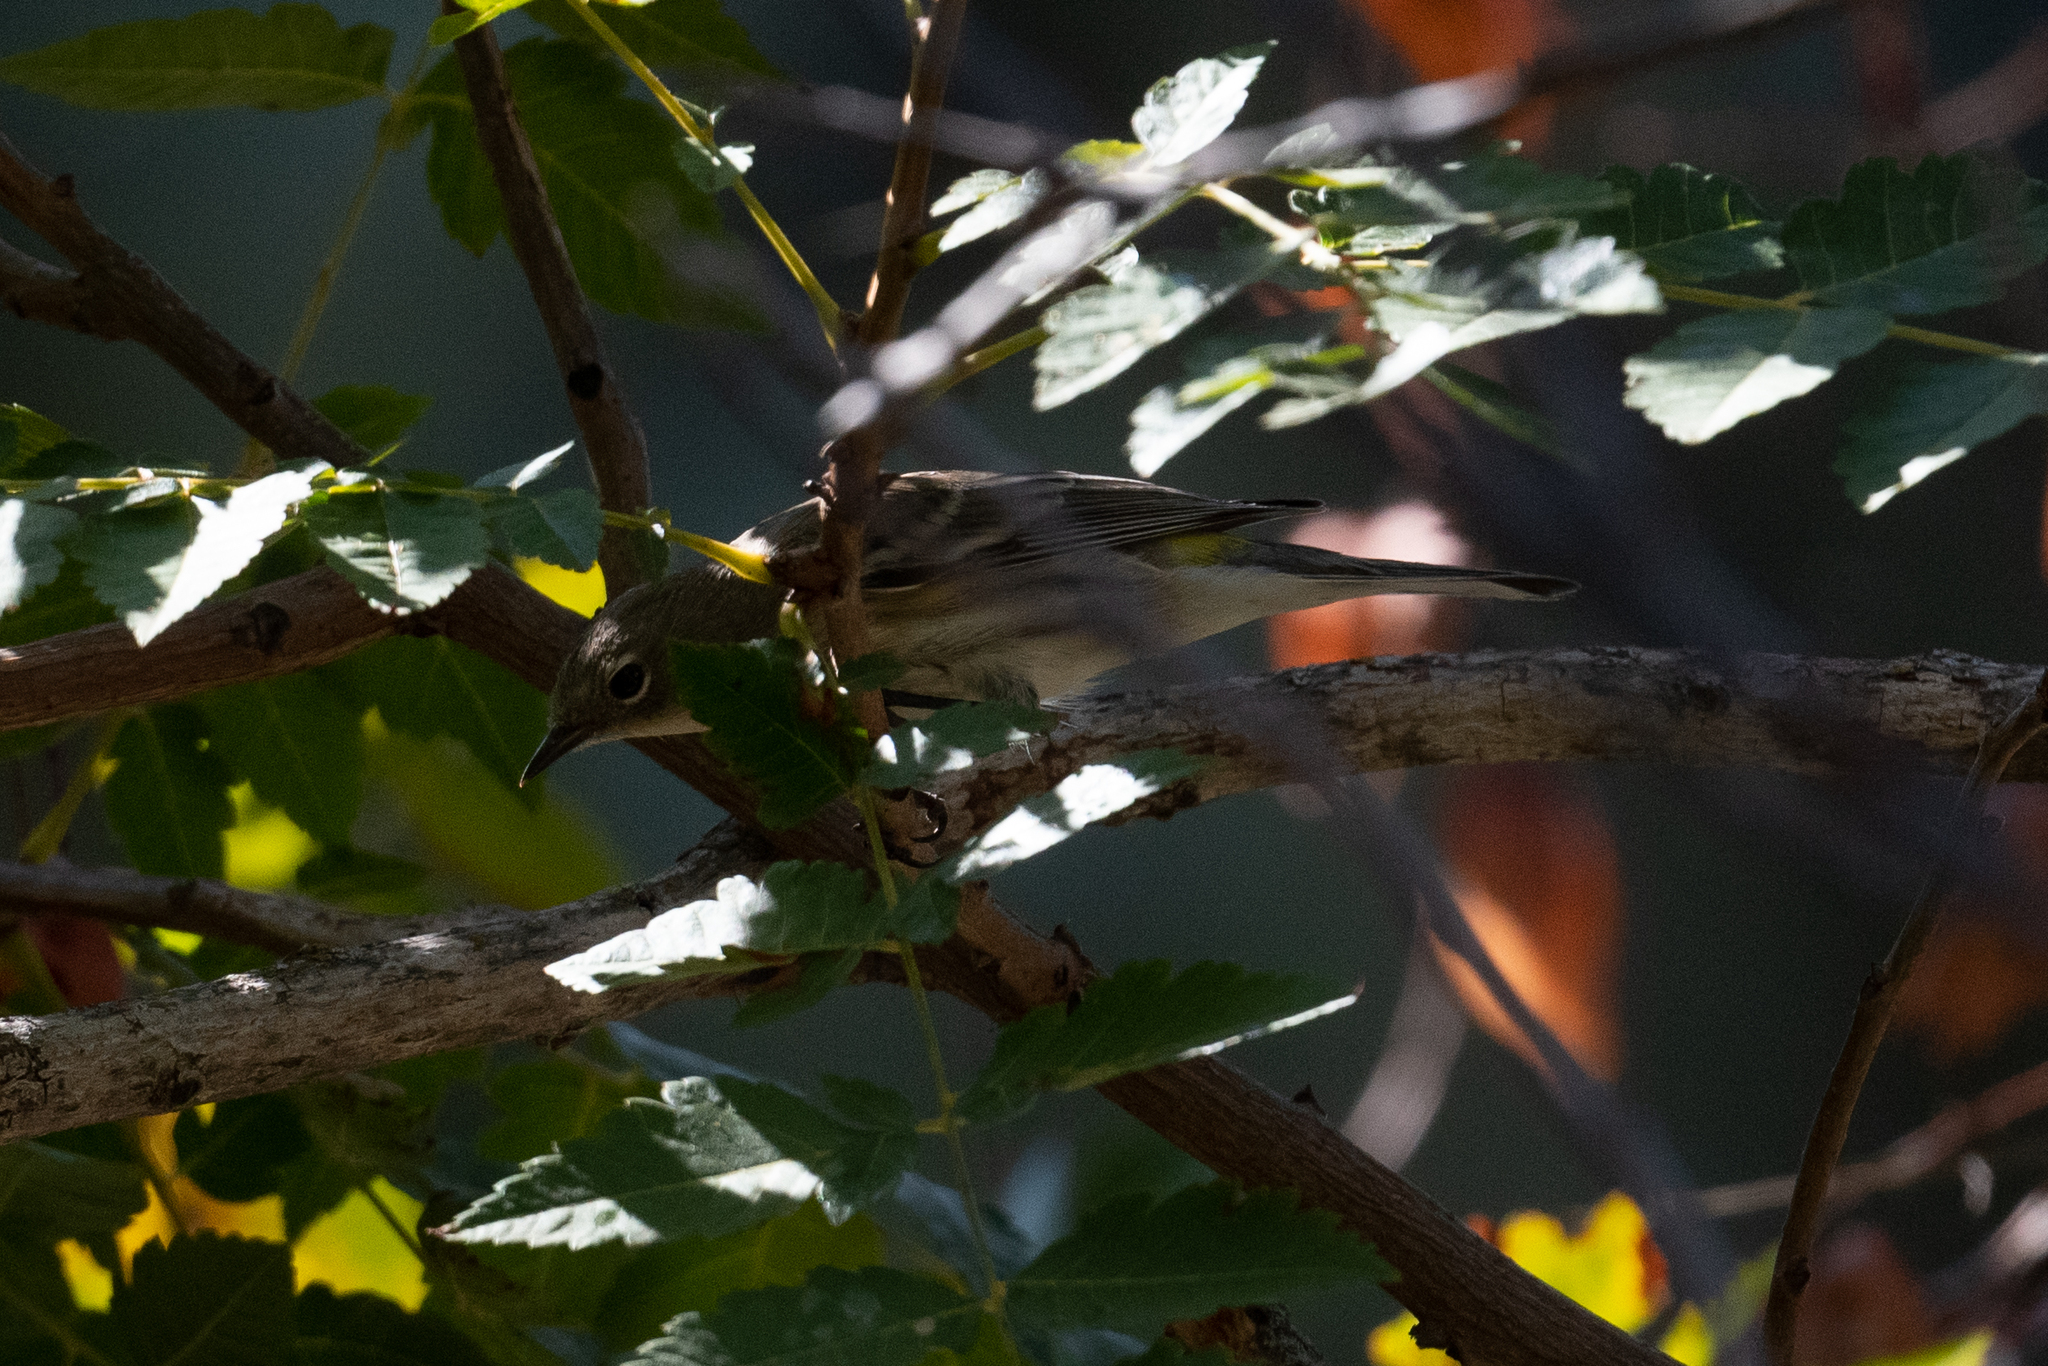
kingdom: Animalia
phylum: Chordata
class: Aves
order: Passeriformes
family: Parulidae
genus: Setophaga
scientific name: Setophaga coronata
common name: Myrtle warbler
